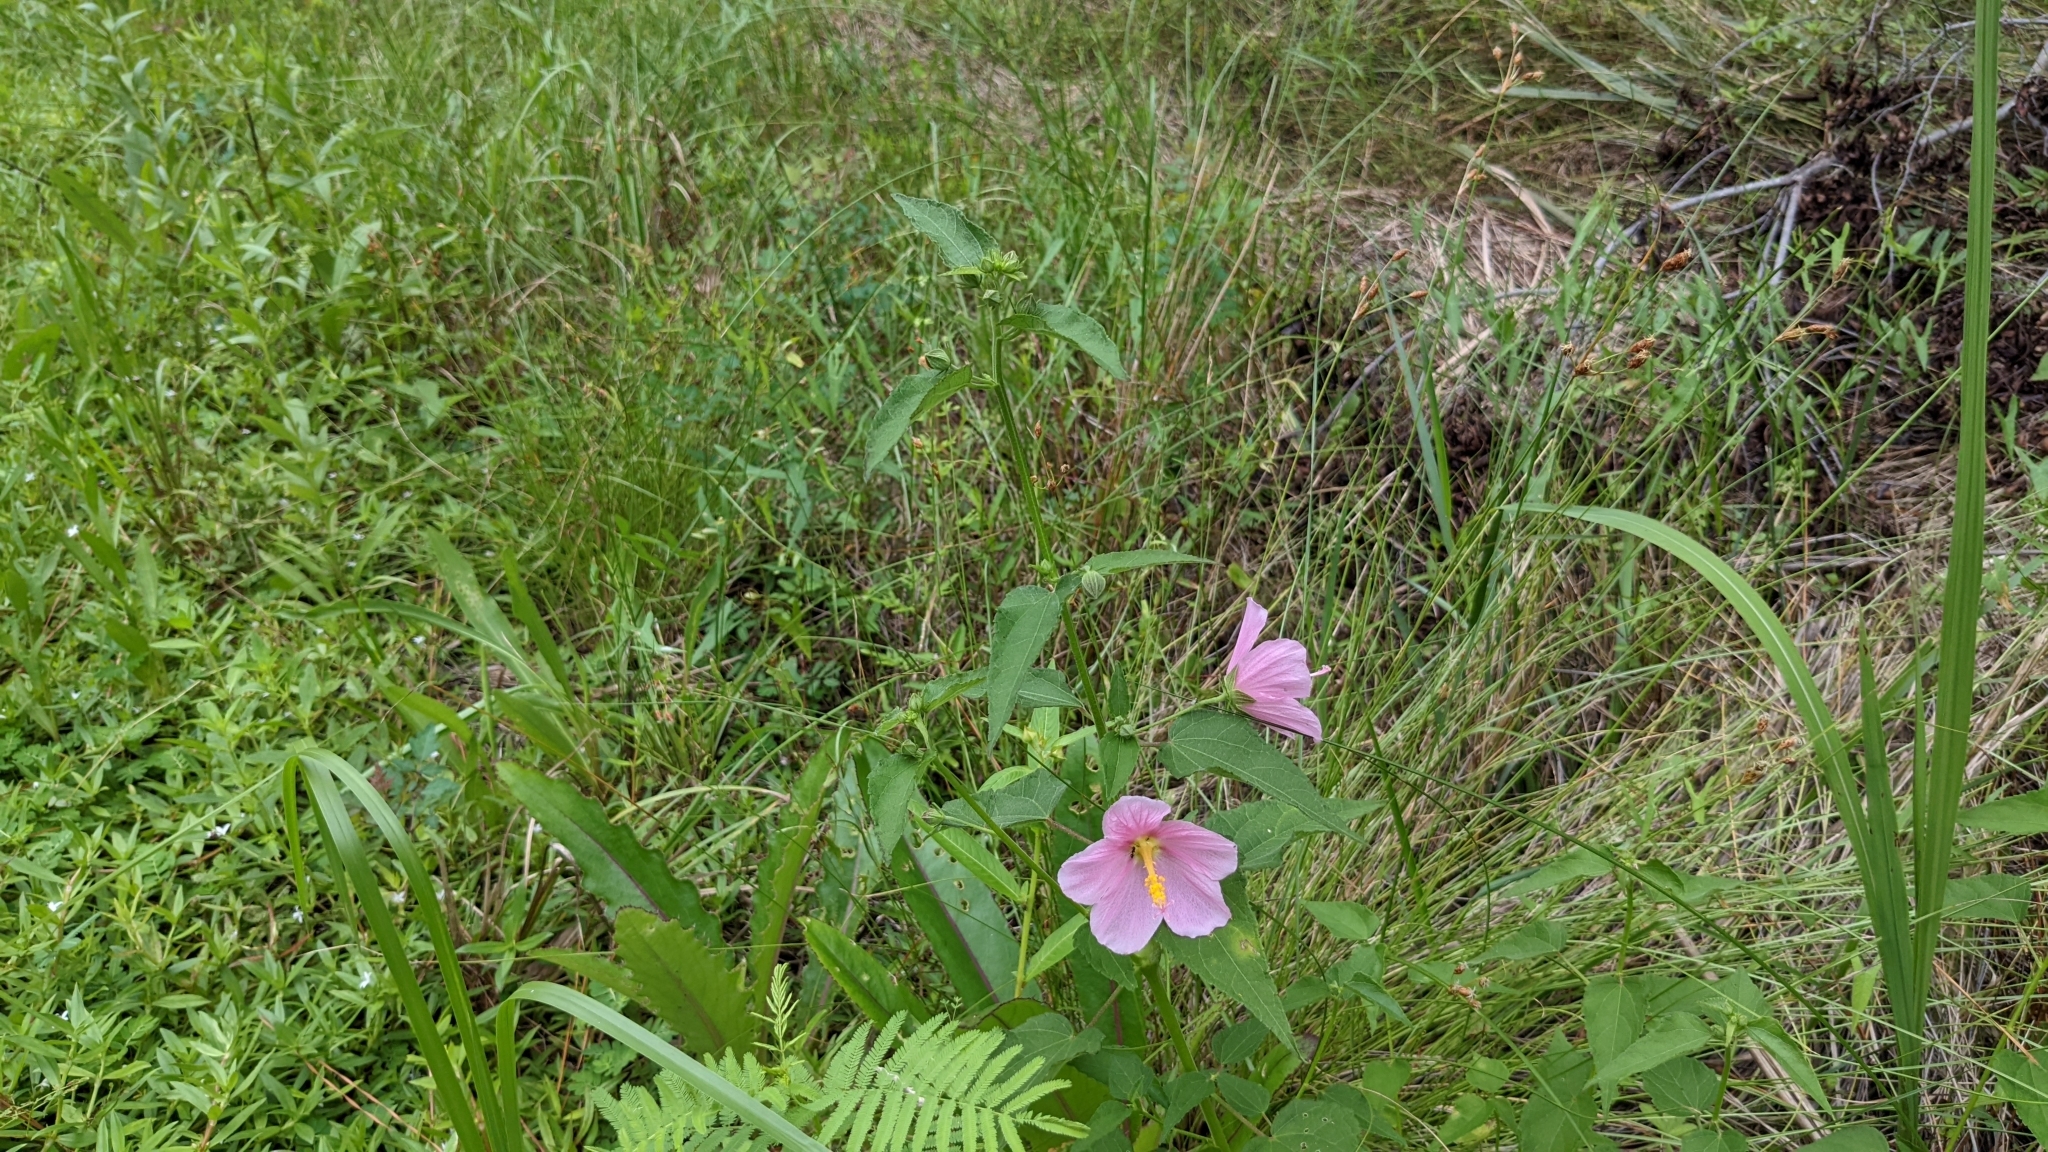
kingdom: Plantae
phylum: Tracheophyta
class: Magnoliopsida
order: Malvales
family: Malvaceae
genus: Kosteletzkya
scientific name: Kosteletzkya pentacarpos
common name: Virginia saltmarsh mallow
